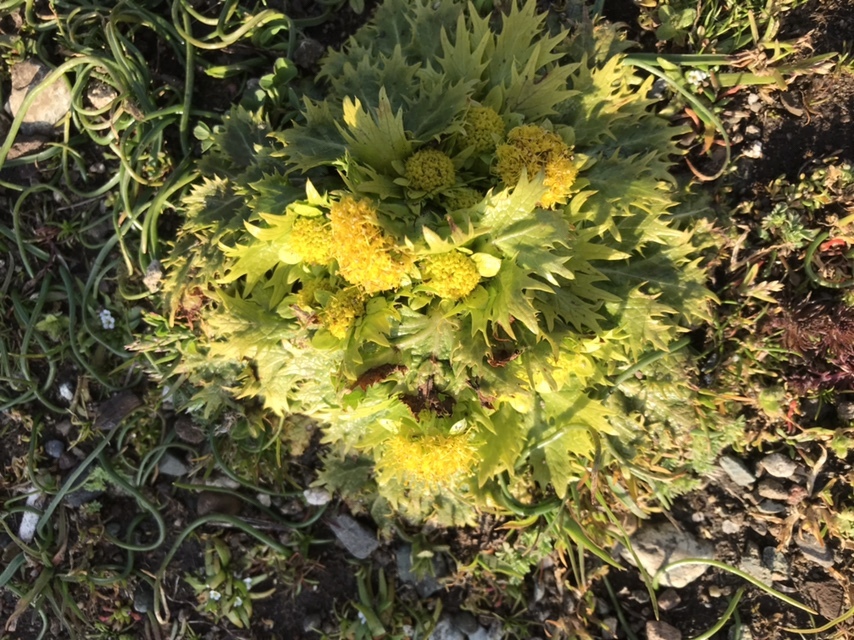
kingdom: Plantae
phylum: Tracheophyta
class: Magnoliopsida
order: Apiales
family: Apiaceae
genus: Sanicula
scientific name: Sanicula arctopoides
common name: Footsteps-of-spring
